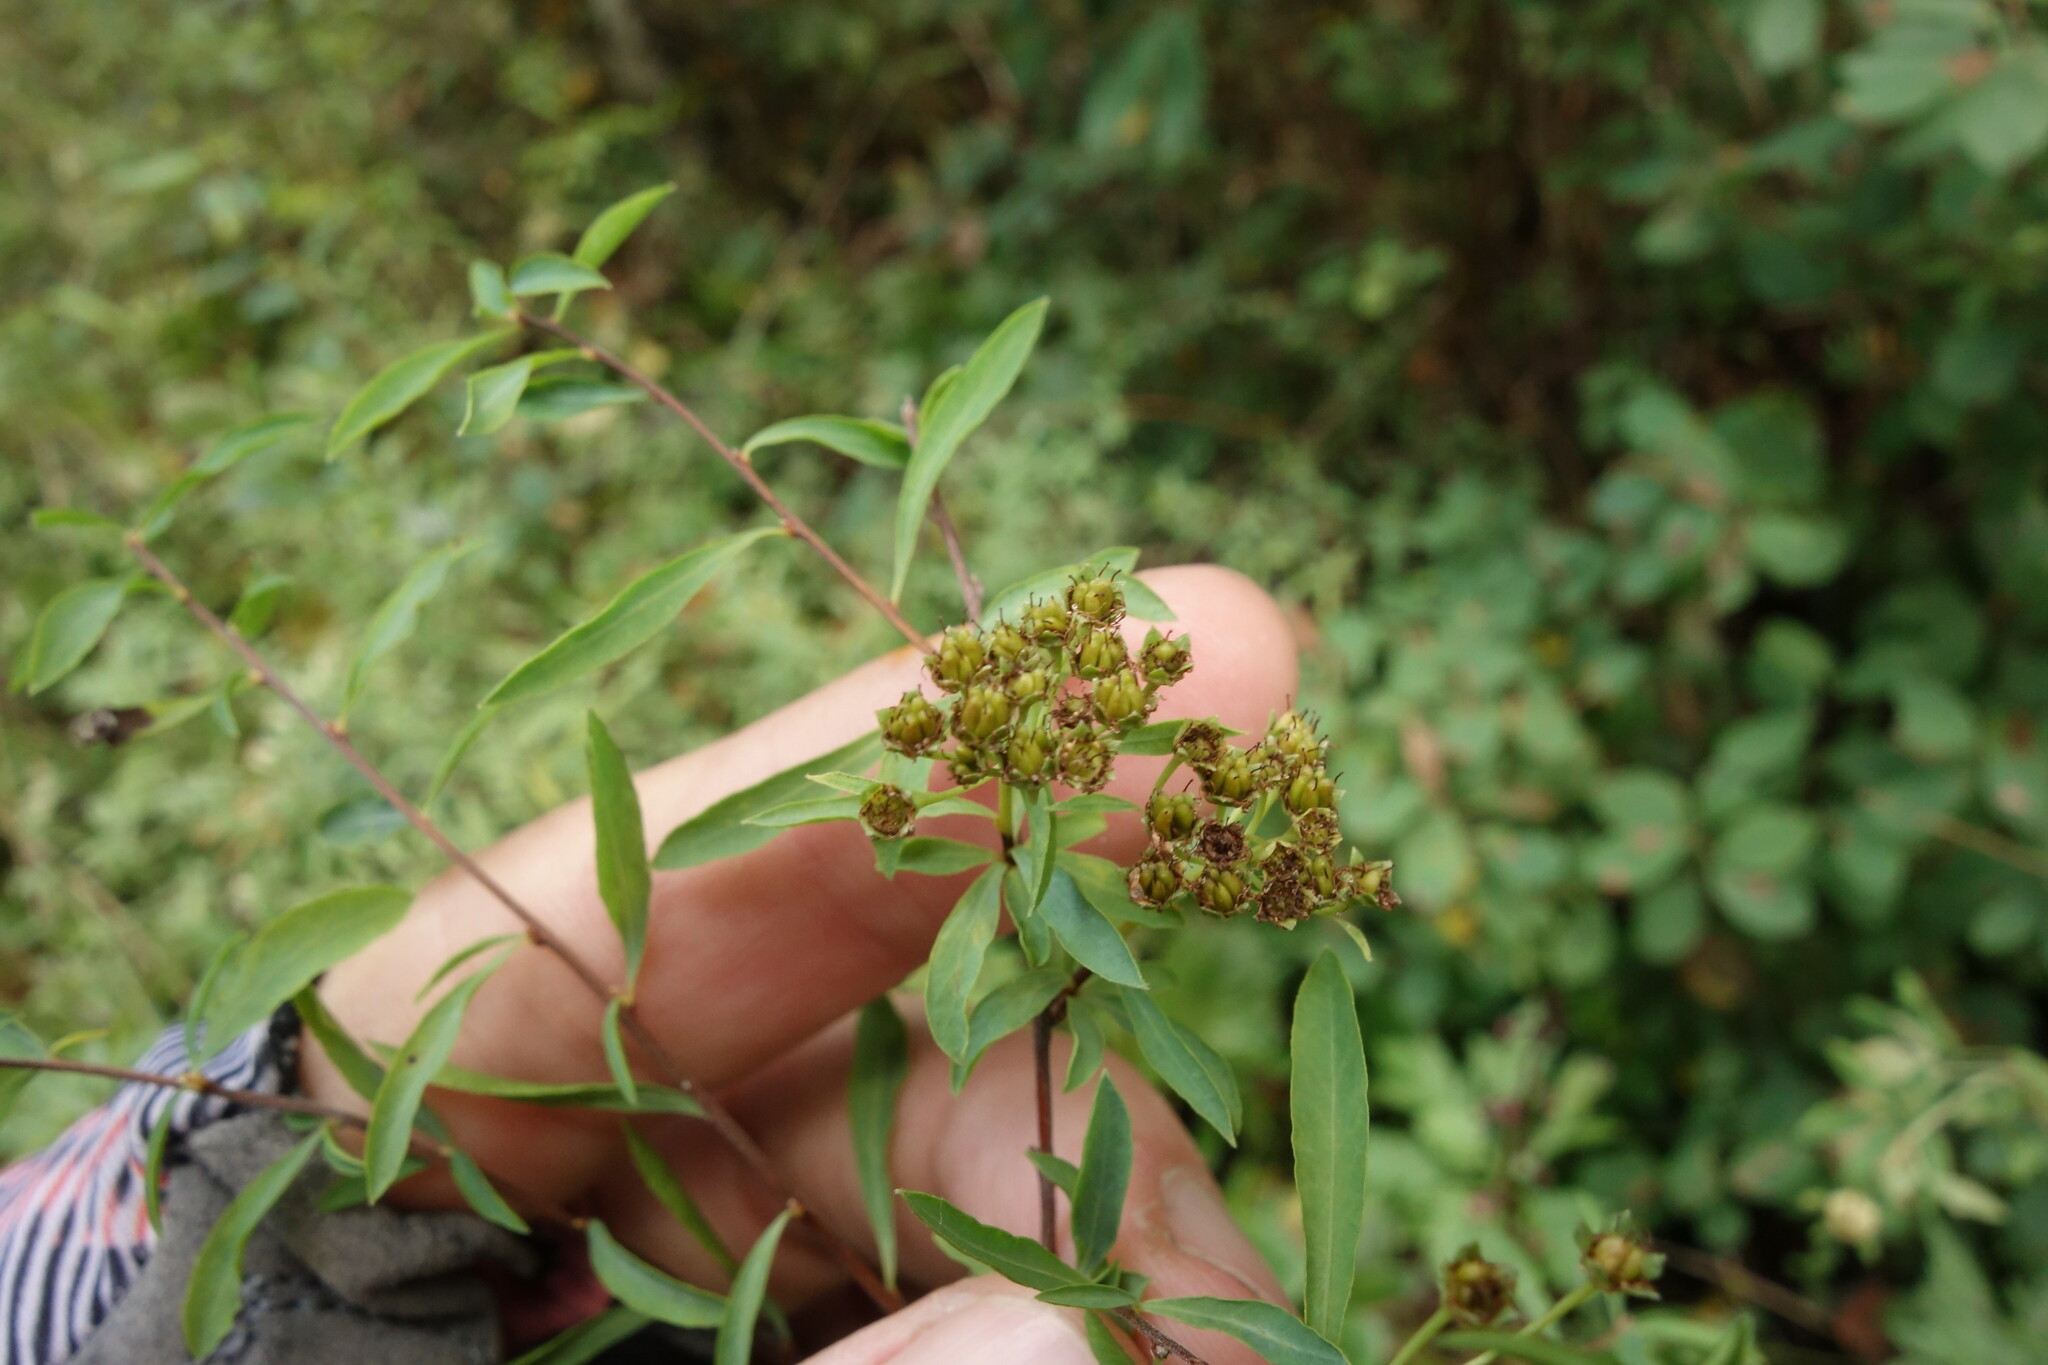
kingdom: Plantae
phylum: Tracheophyta
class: Magnoliopsida
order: Rosales
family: Rosaceae
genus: Spiraea
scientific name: Spiraea alpina
